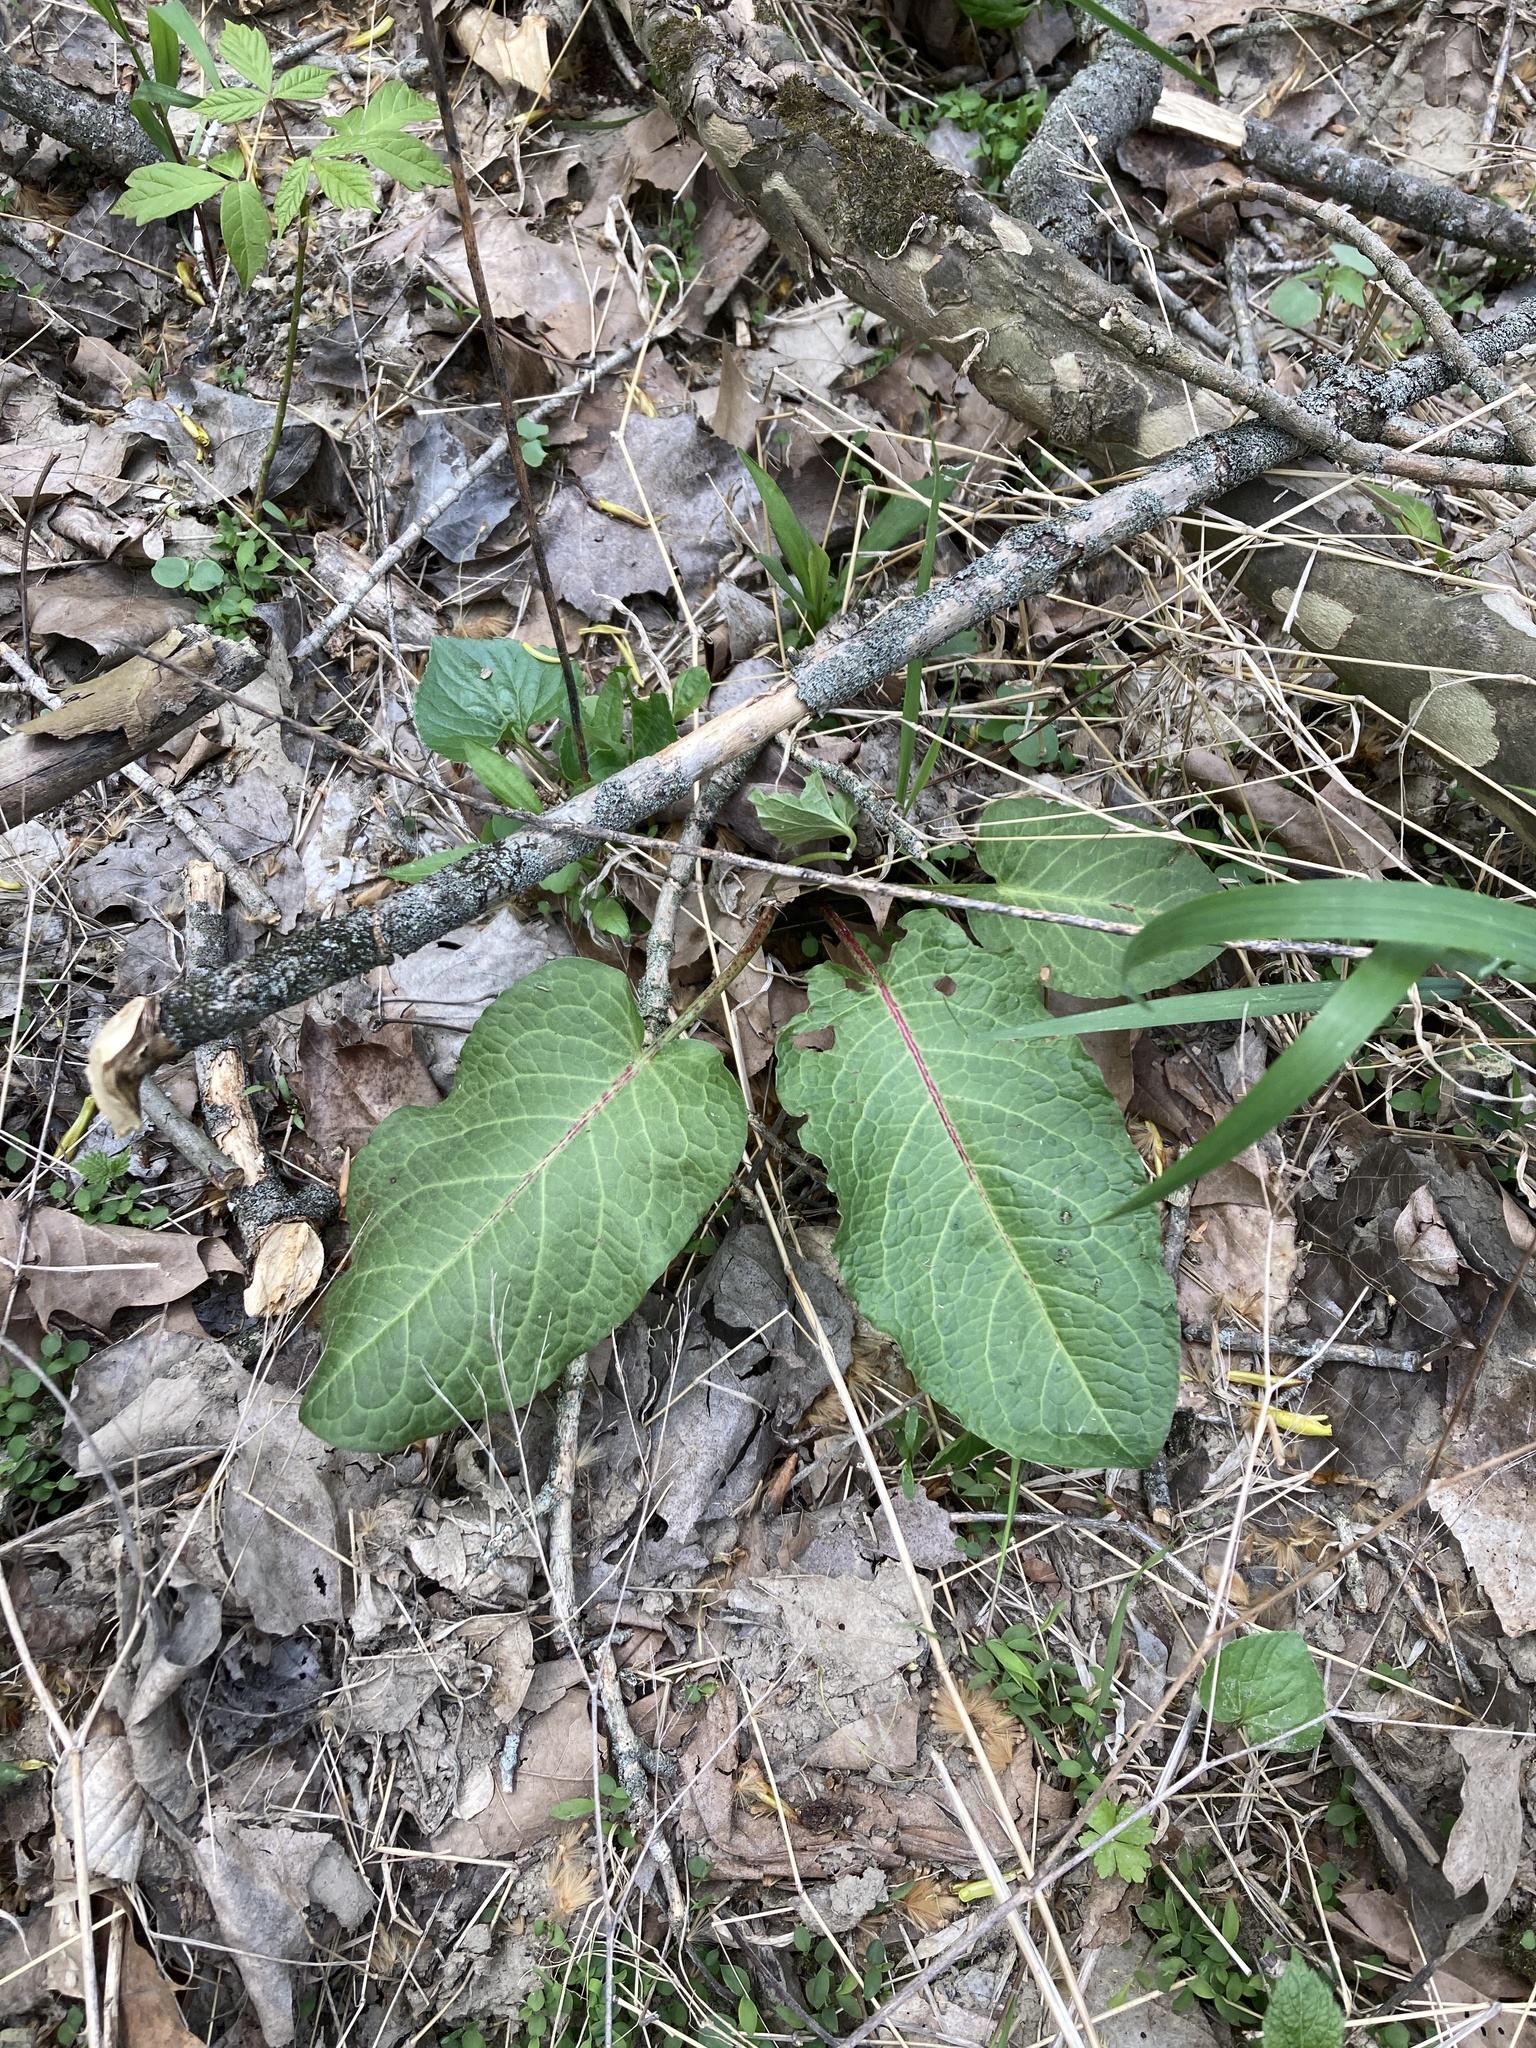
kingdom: Plantae
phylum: Tracheophyta
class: Magnoliopsida
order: Caryophyllales
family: Polygonaceae
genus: Rumex
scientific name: Rumex obtusifolius
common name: Bitter dock
